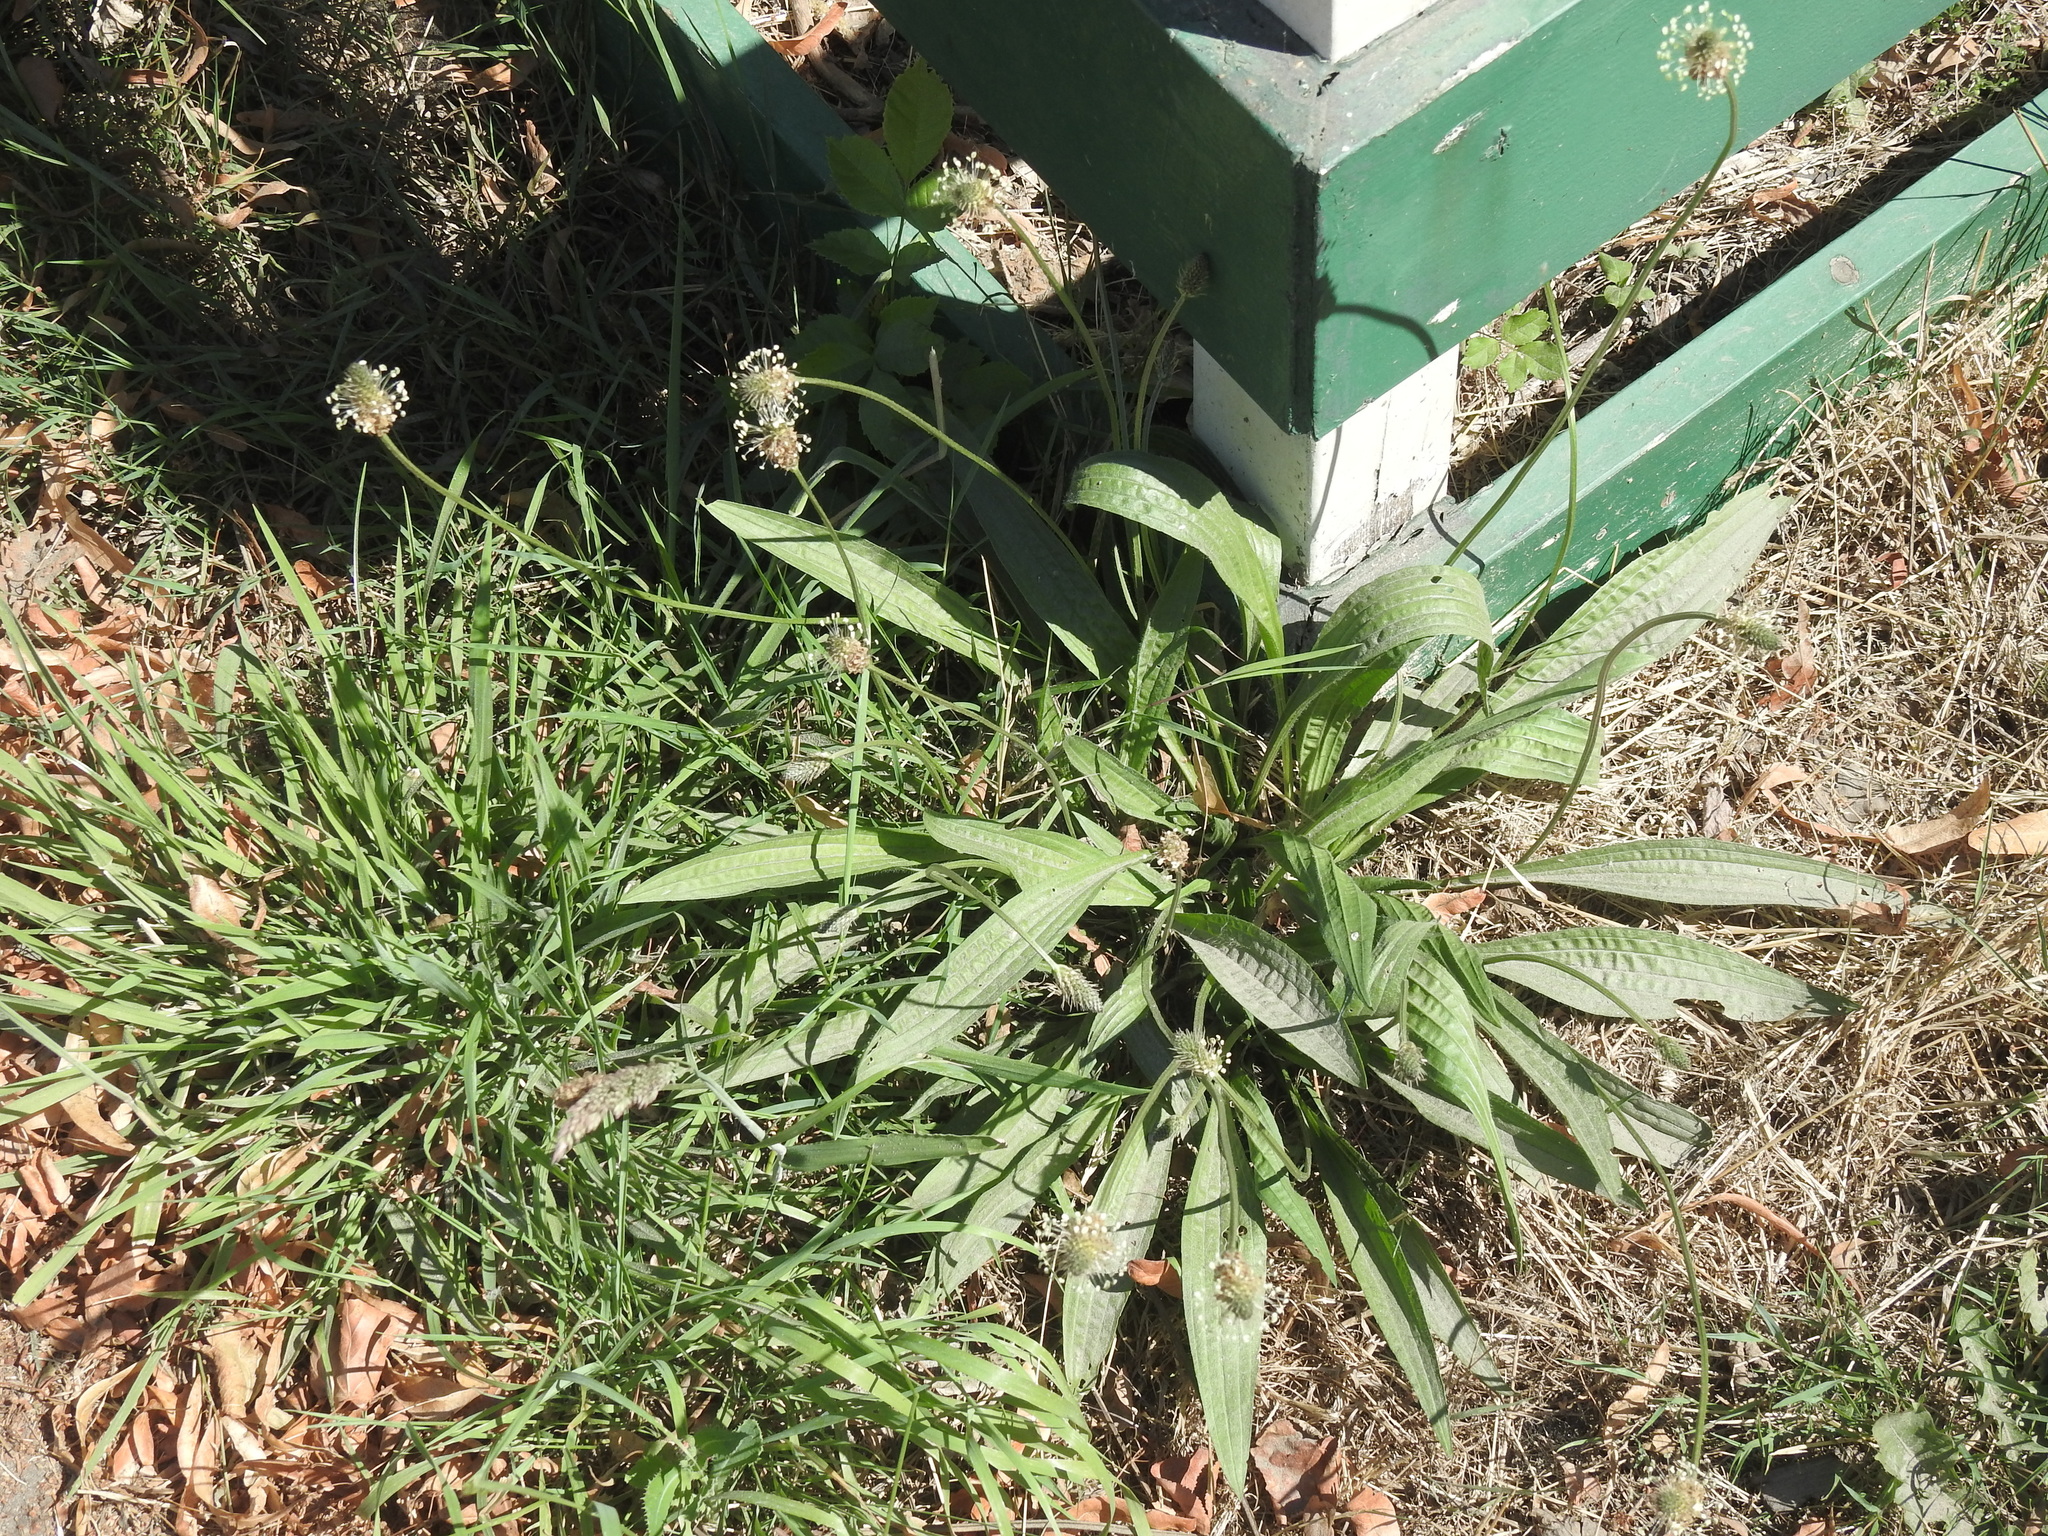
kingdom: Plantae
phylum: Tracheophyta
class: Magnoliopsida
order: Lamiales
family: Plantaginaceae
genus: Plantago
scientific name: Plantago lanceolata
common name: Ribwort plantain
